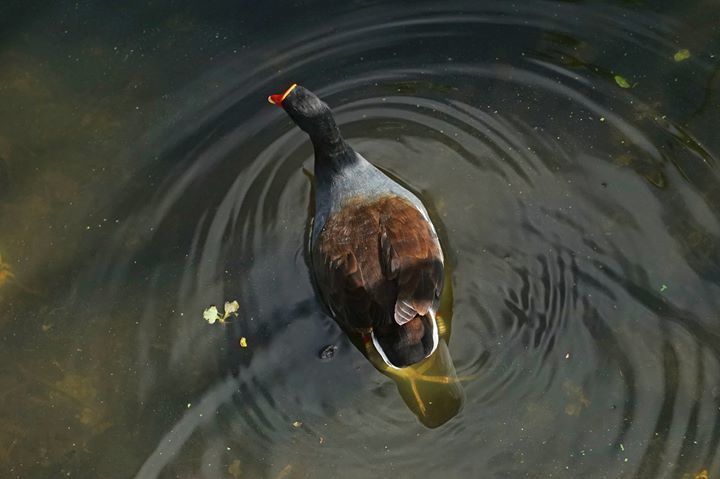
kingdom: Animalia
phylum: Chordata
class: Aves
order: Gruiformes
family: Rallidae
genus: Gallinula
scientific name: Gallinula chloropus
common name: Common moorhen
